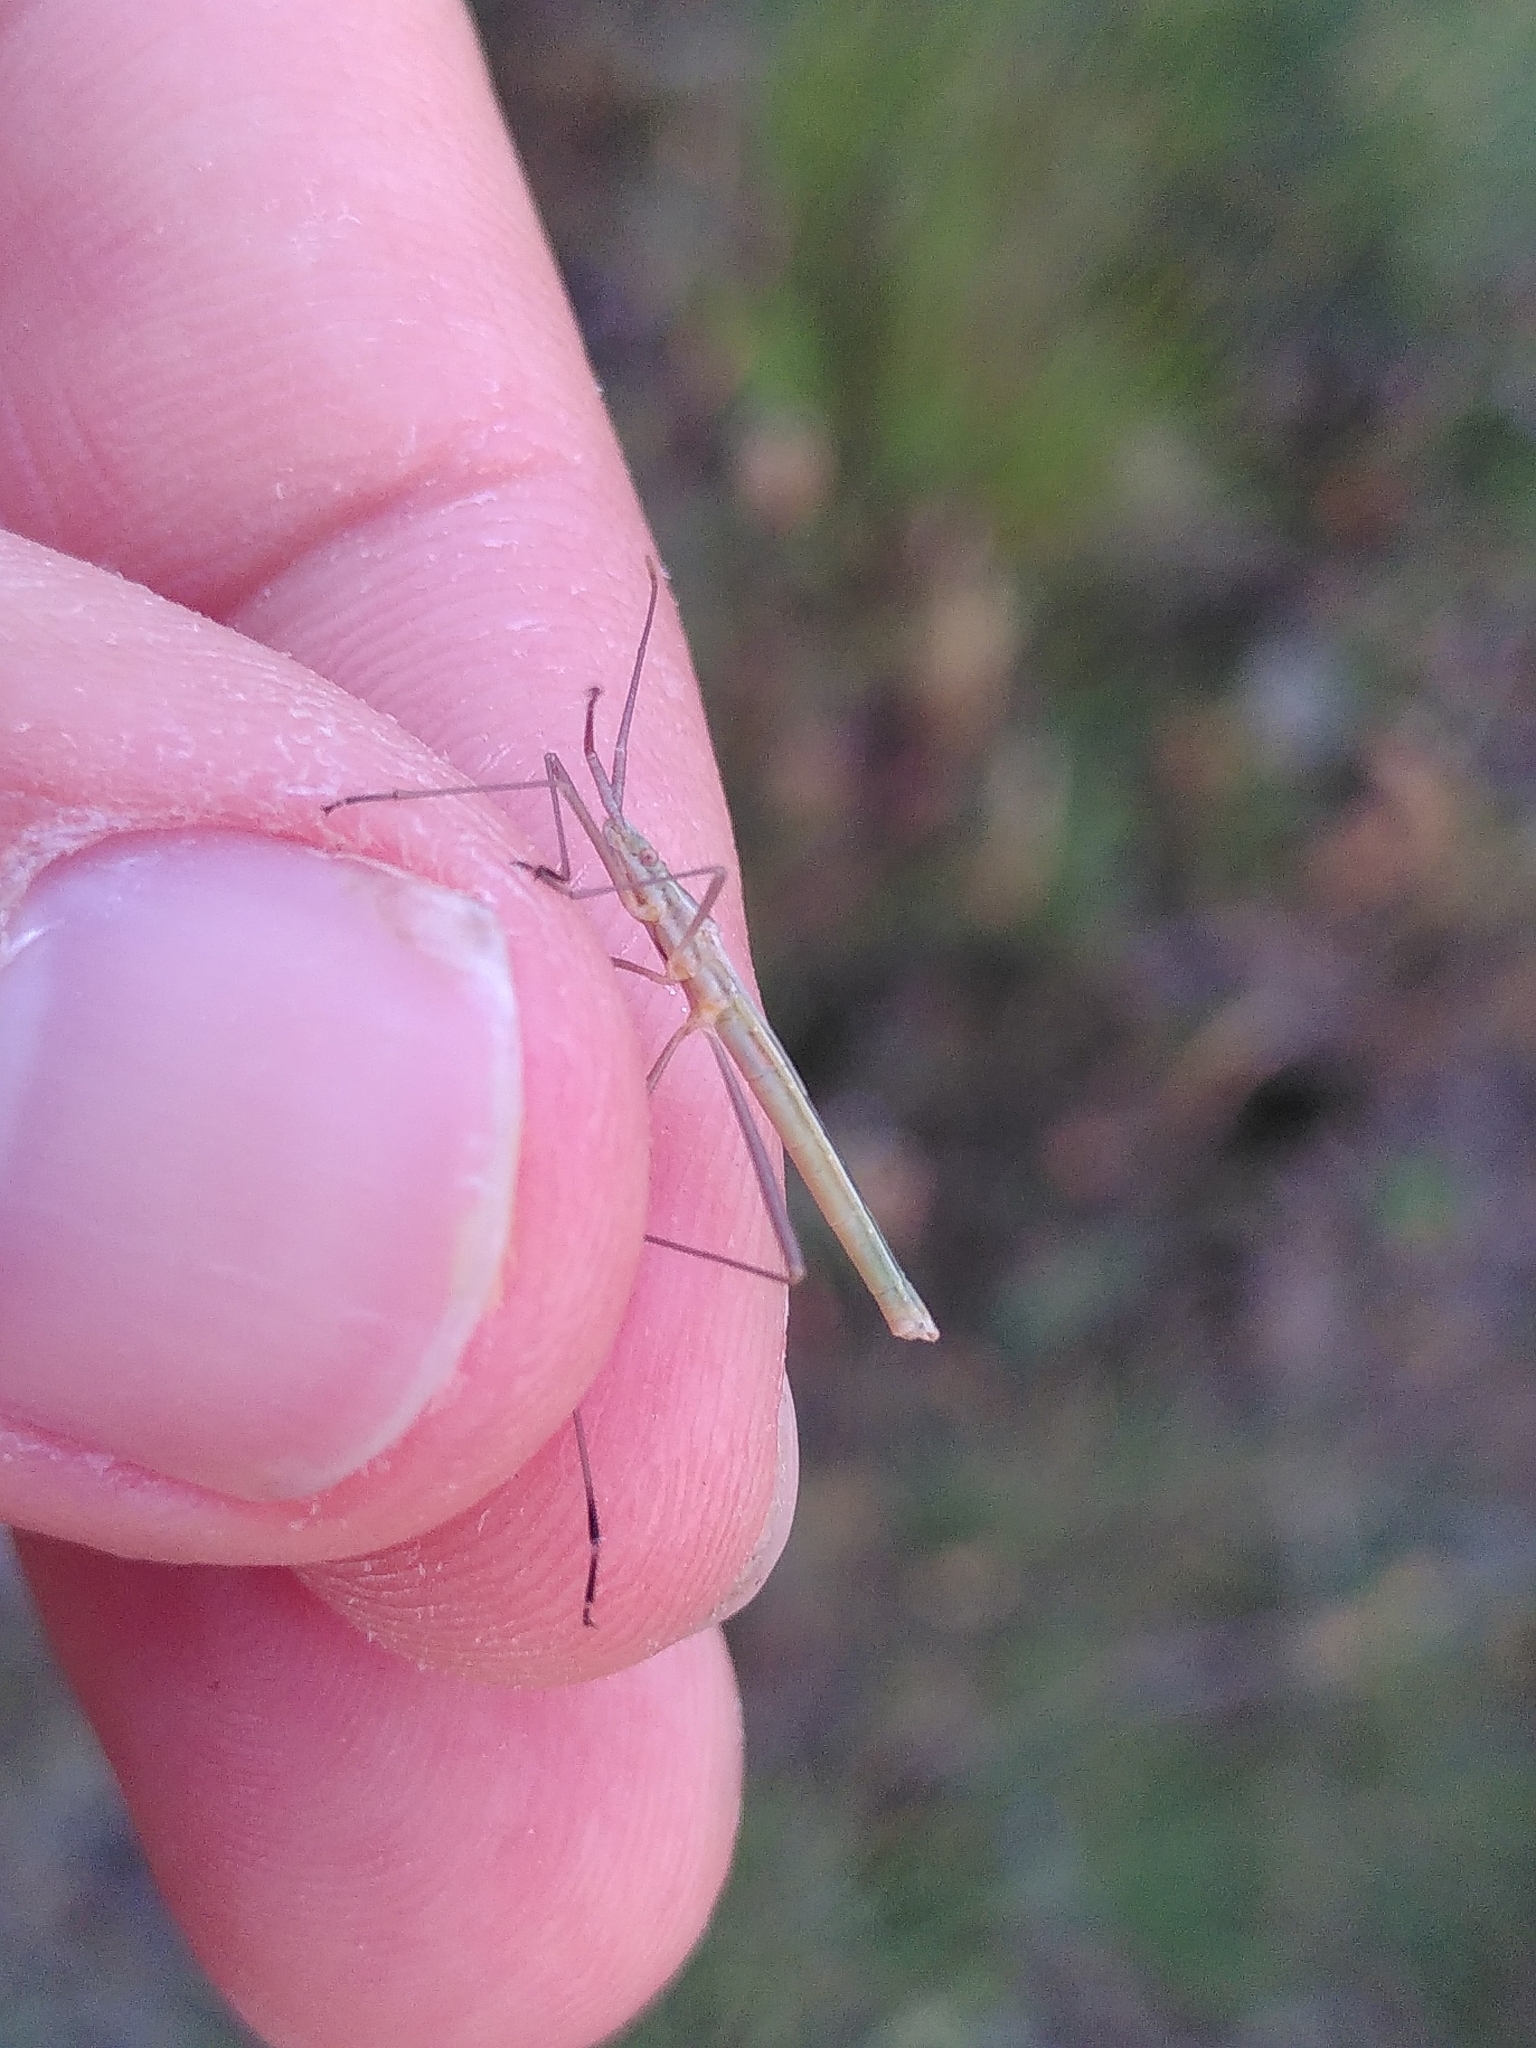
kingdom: Animalia
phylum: Arthropoda
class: Insecta
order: Hemiptera
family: Rhopalidae
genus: Chorosoma
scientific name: Chorosoma schillingii
